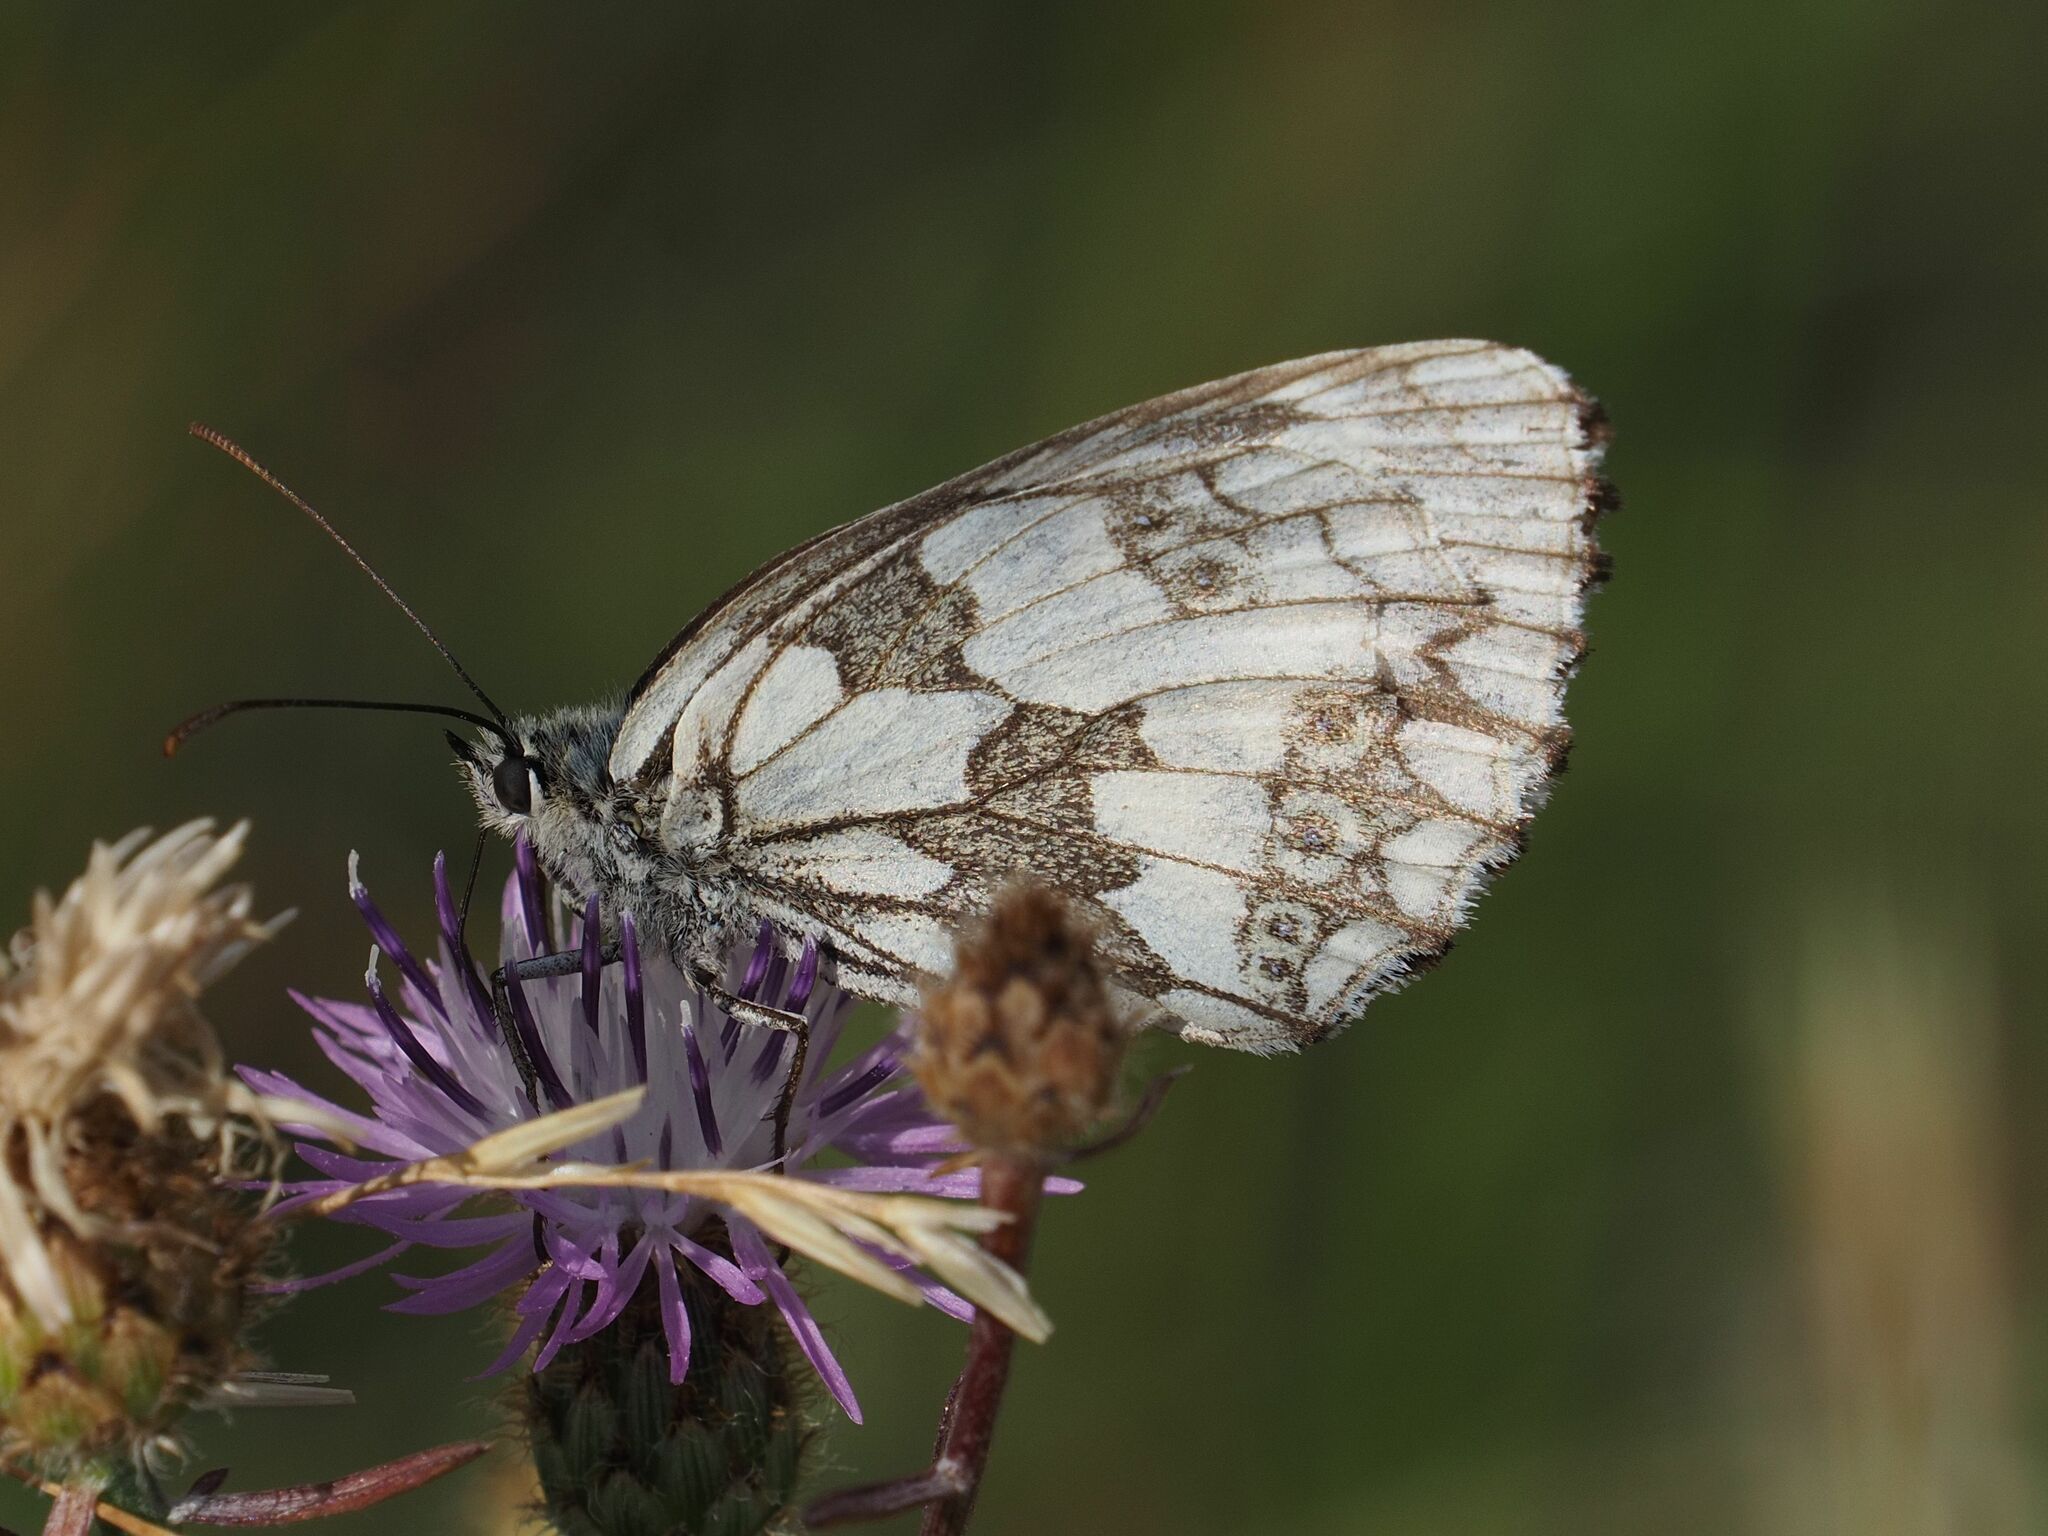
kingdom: Animalia
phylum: Arthropoda
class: Insecta
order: Lepidoptera
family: Nymphalidae
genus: Melanargia
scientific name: Melanargia galathea
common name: Marbled white
